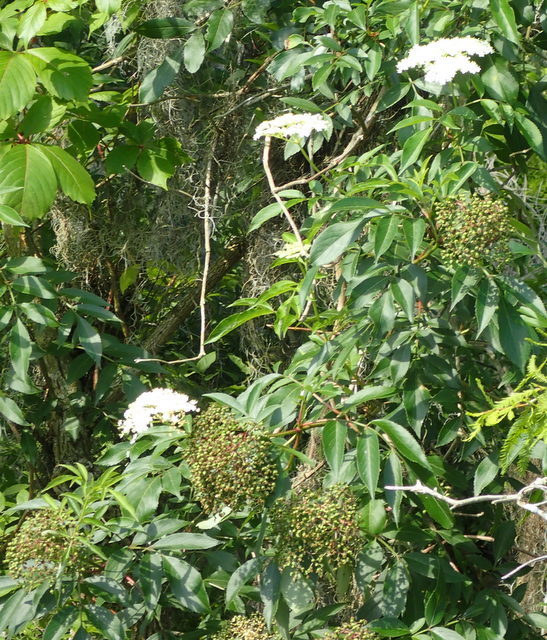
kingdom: Plantae
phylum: Tracheophyta
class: Magnoliopsida
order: Dipsacales
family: Viburnaceae
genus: Sambucus
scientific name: Sambucus canadensis
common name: American elder
